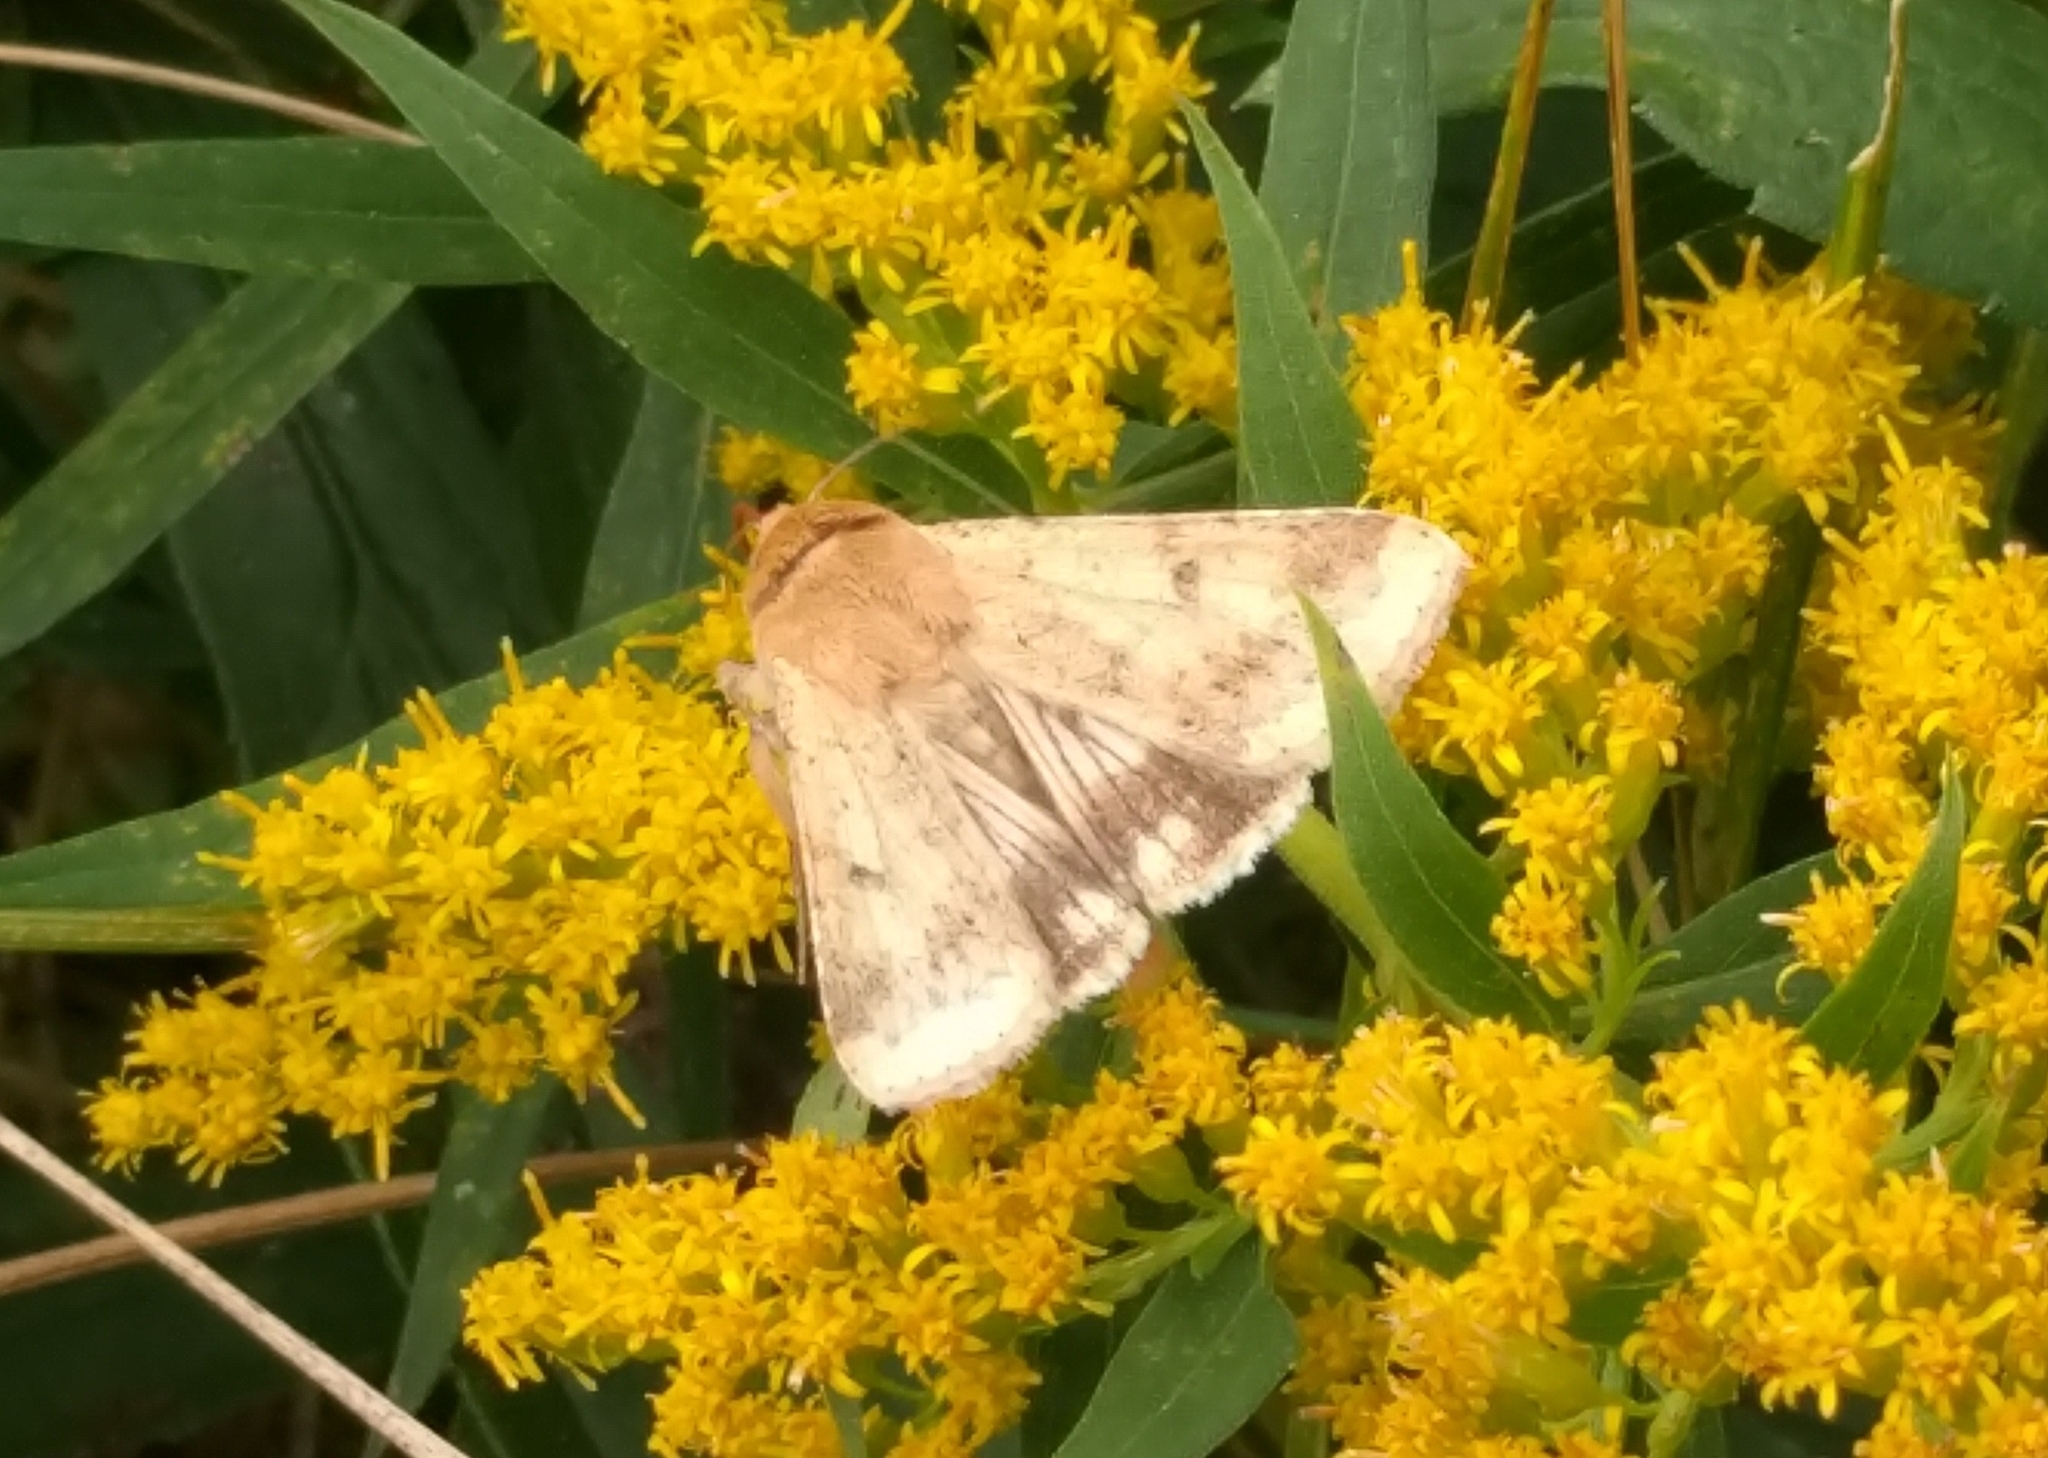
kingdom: Animalia
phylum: Arthropoda
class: Insecta
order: Lepidoptera
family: Noctuidae
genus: Helicoverpa
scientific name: Helicoverpa zea
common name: Bollworm
